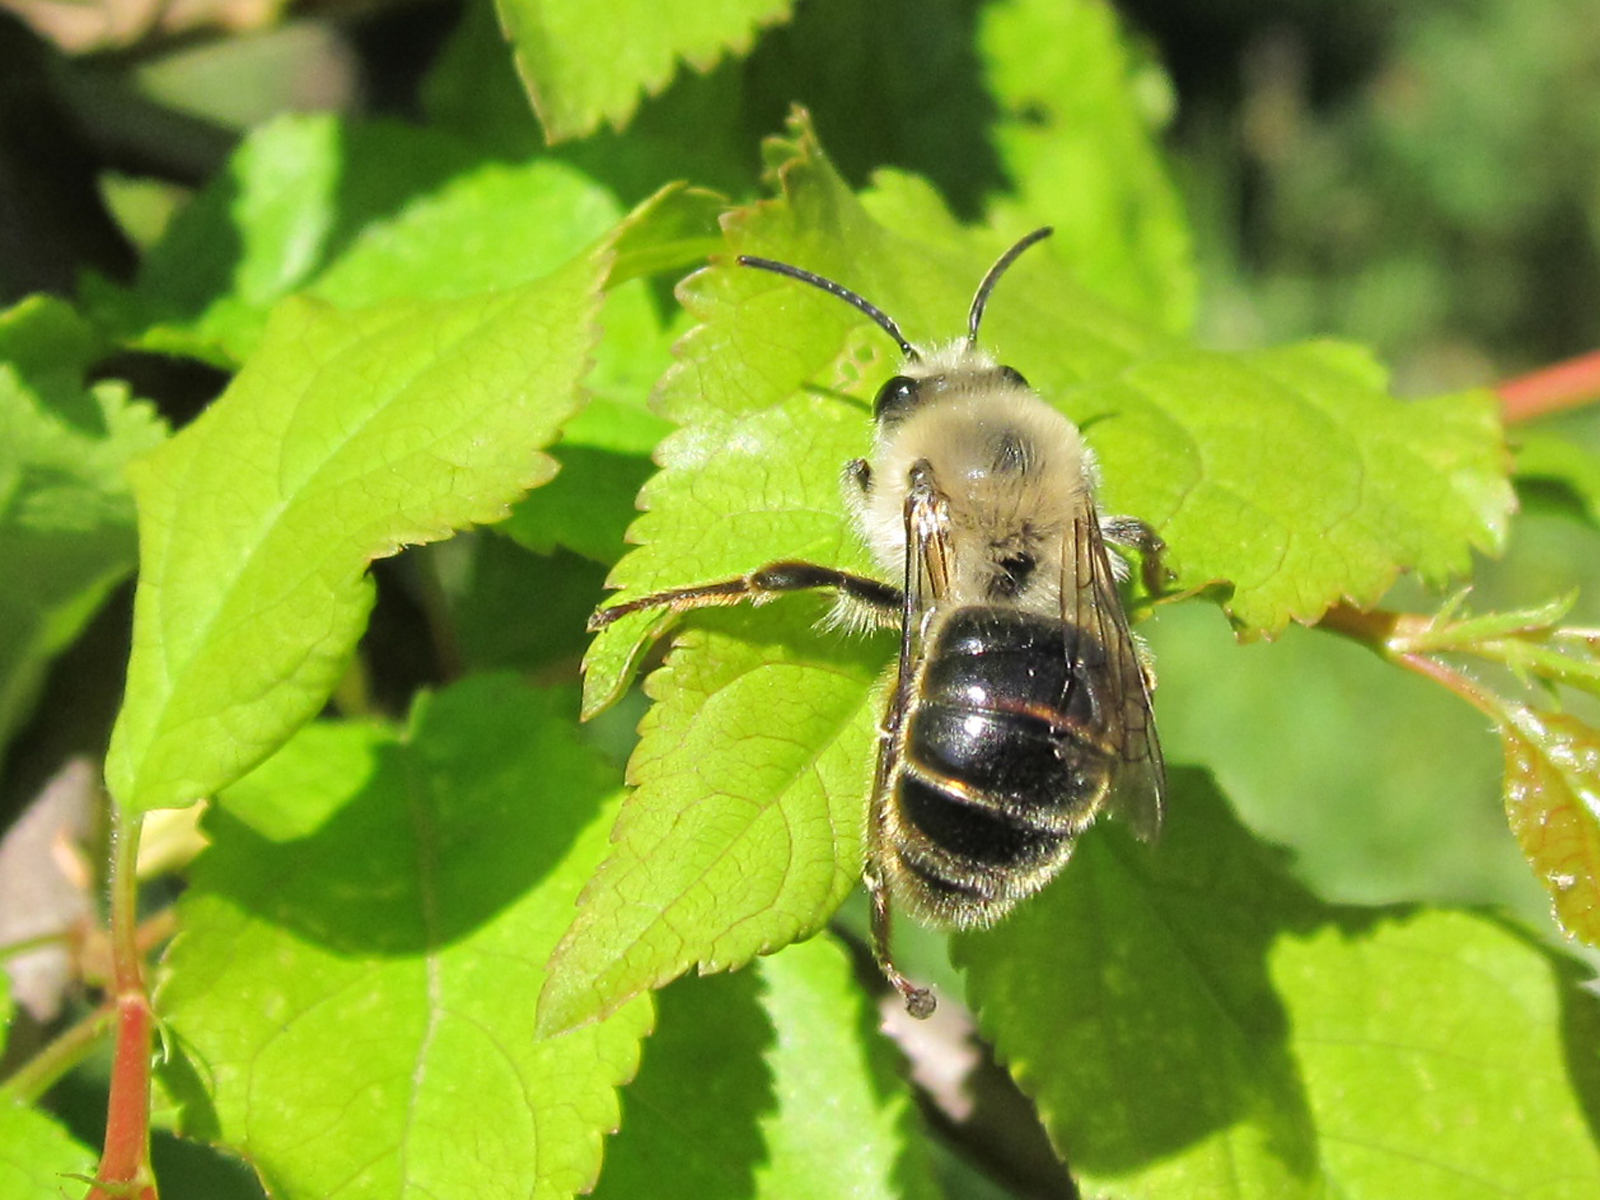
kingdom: Animalia
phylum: Arthropoda
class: Insecta
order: Hymenoptera
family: Colletidae
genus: Cadeguala
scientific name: Cadeguala albopilosa
